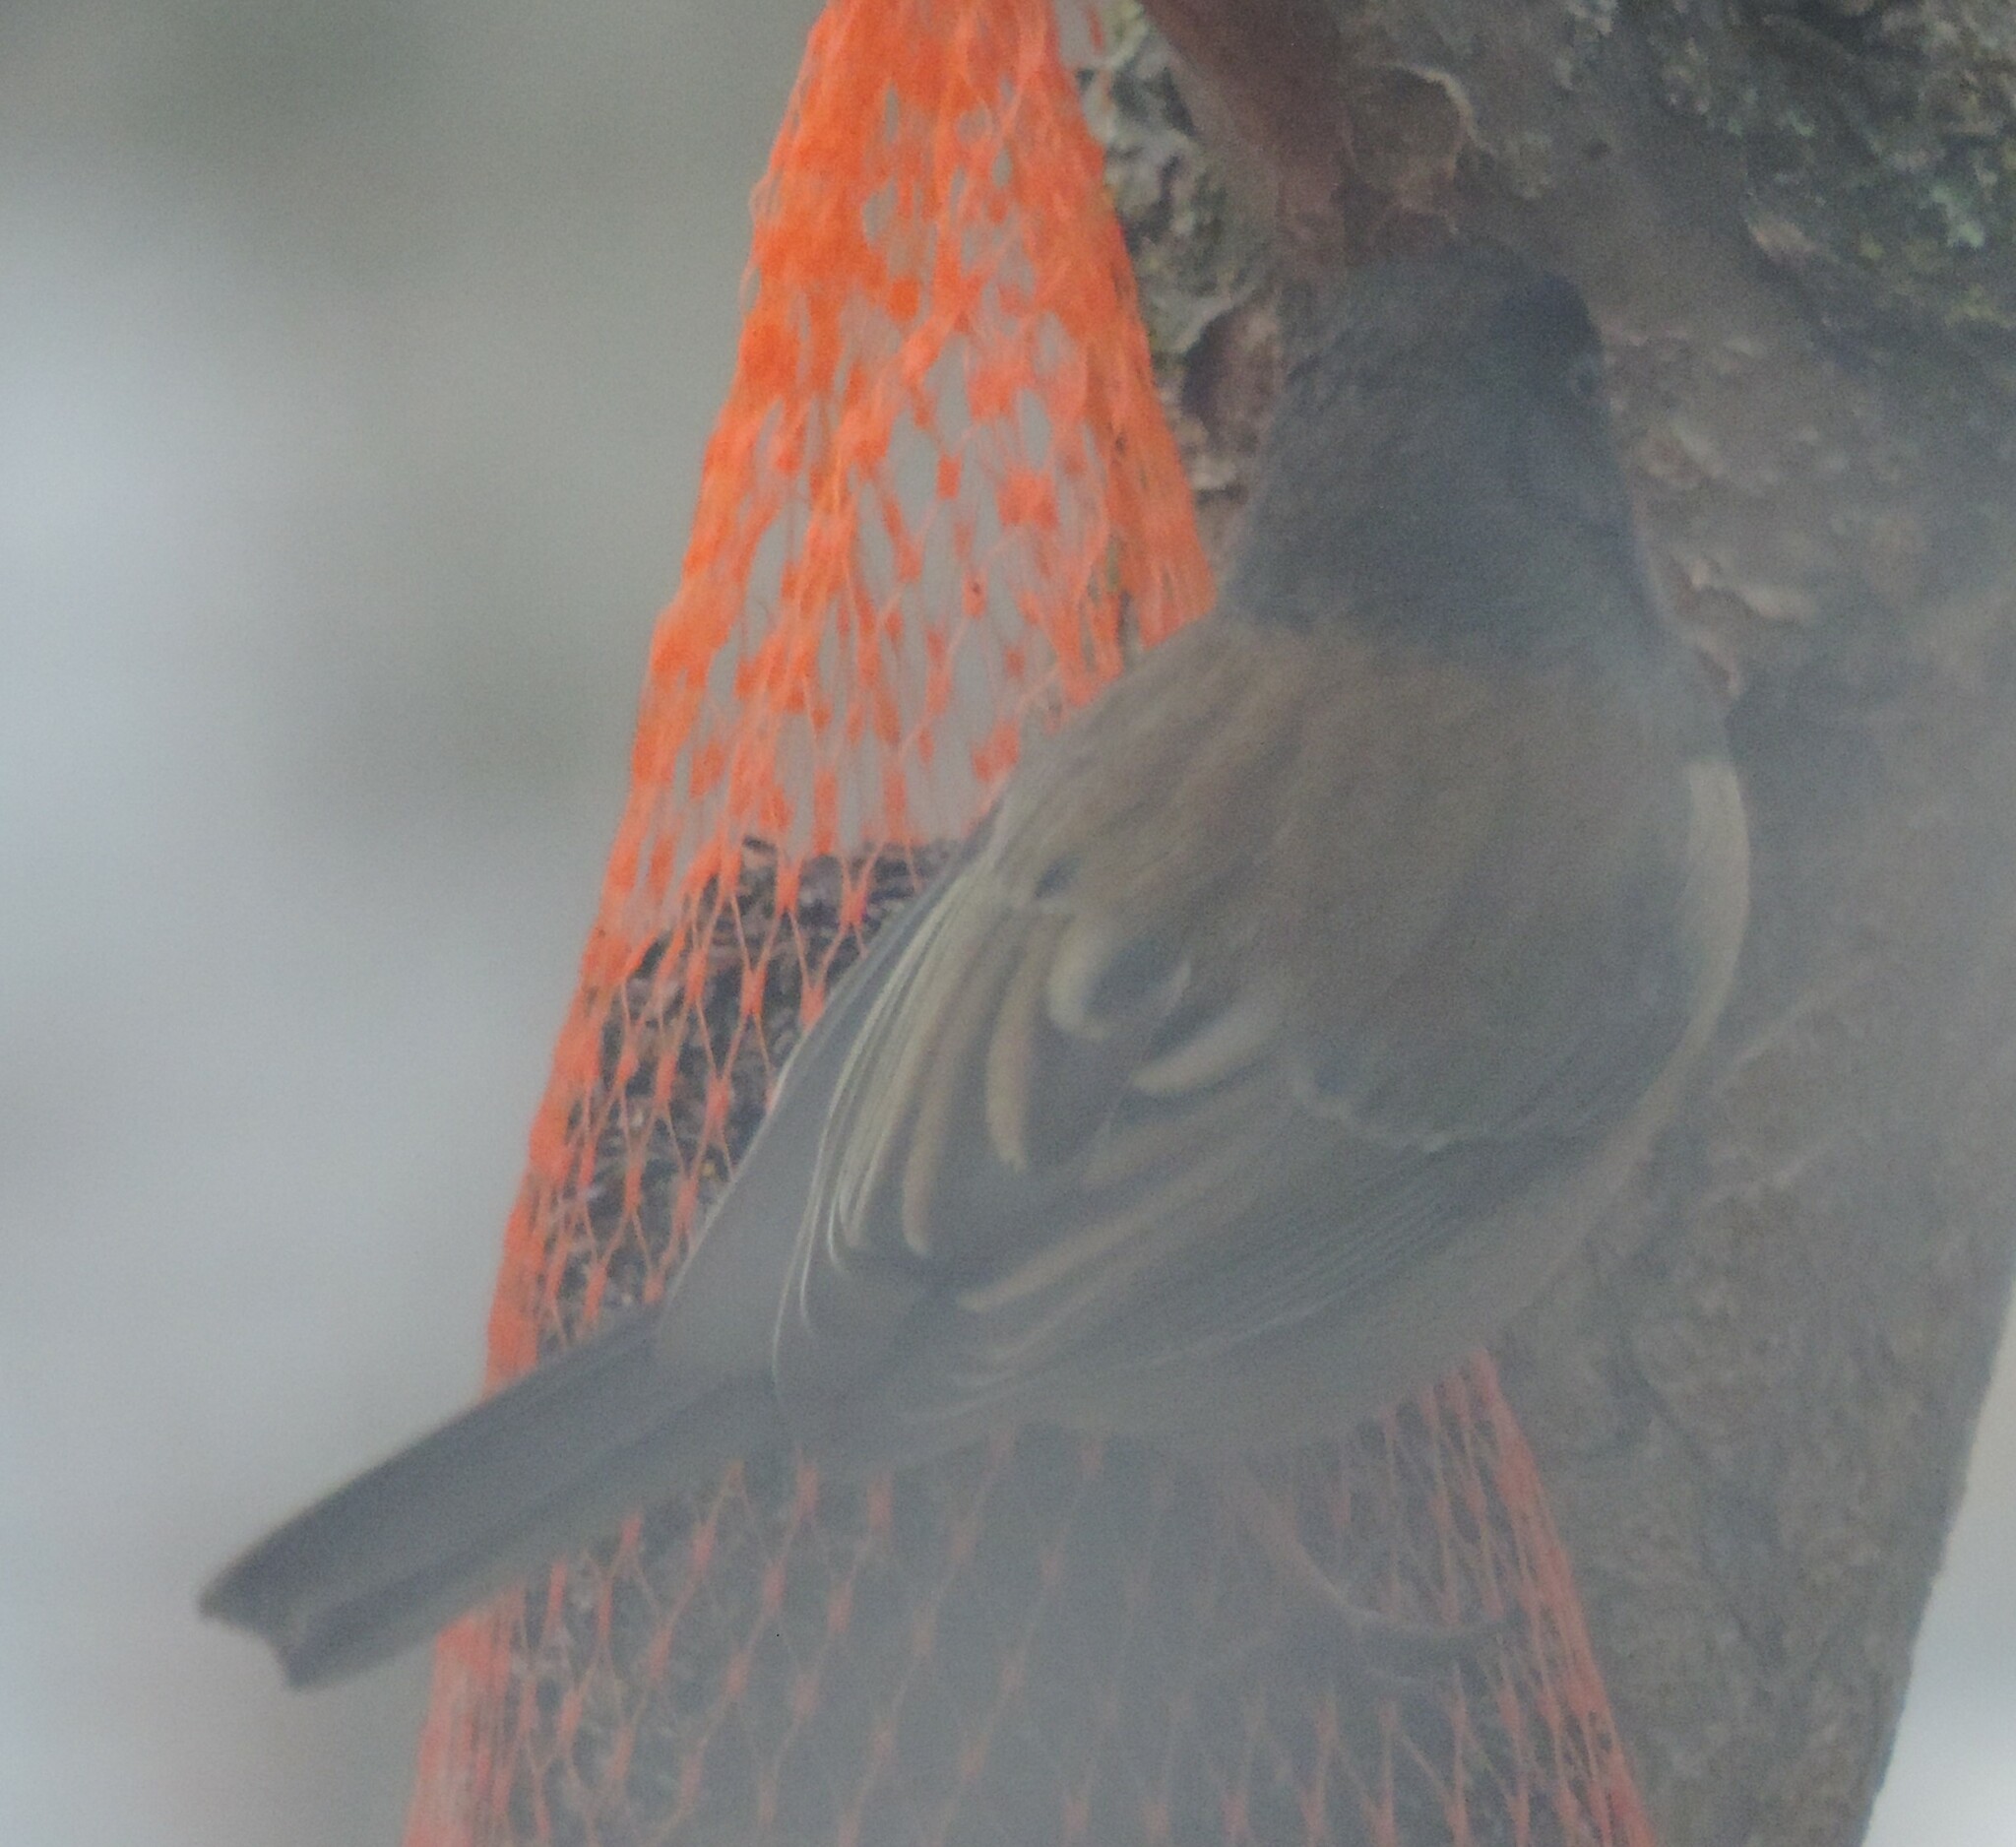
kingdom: Animalia
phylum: Chordata
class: Aves
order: Passeriformes
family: Passerellidae
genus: Junco
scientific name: Junco hyemalis
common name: Dark-eyed junco
